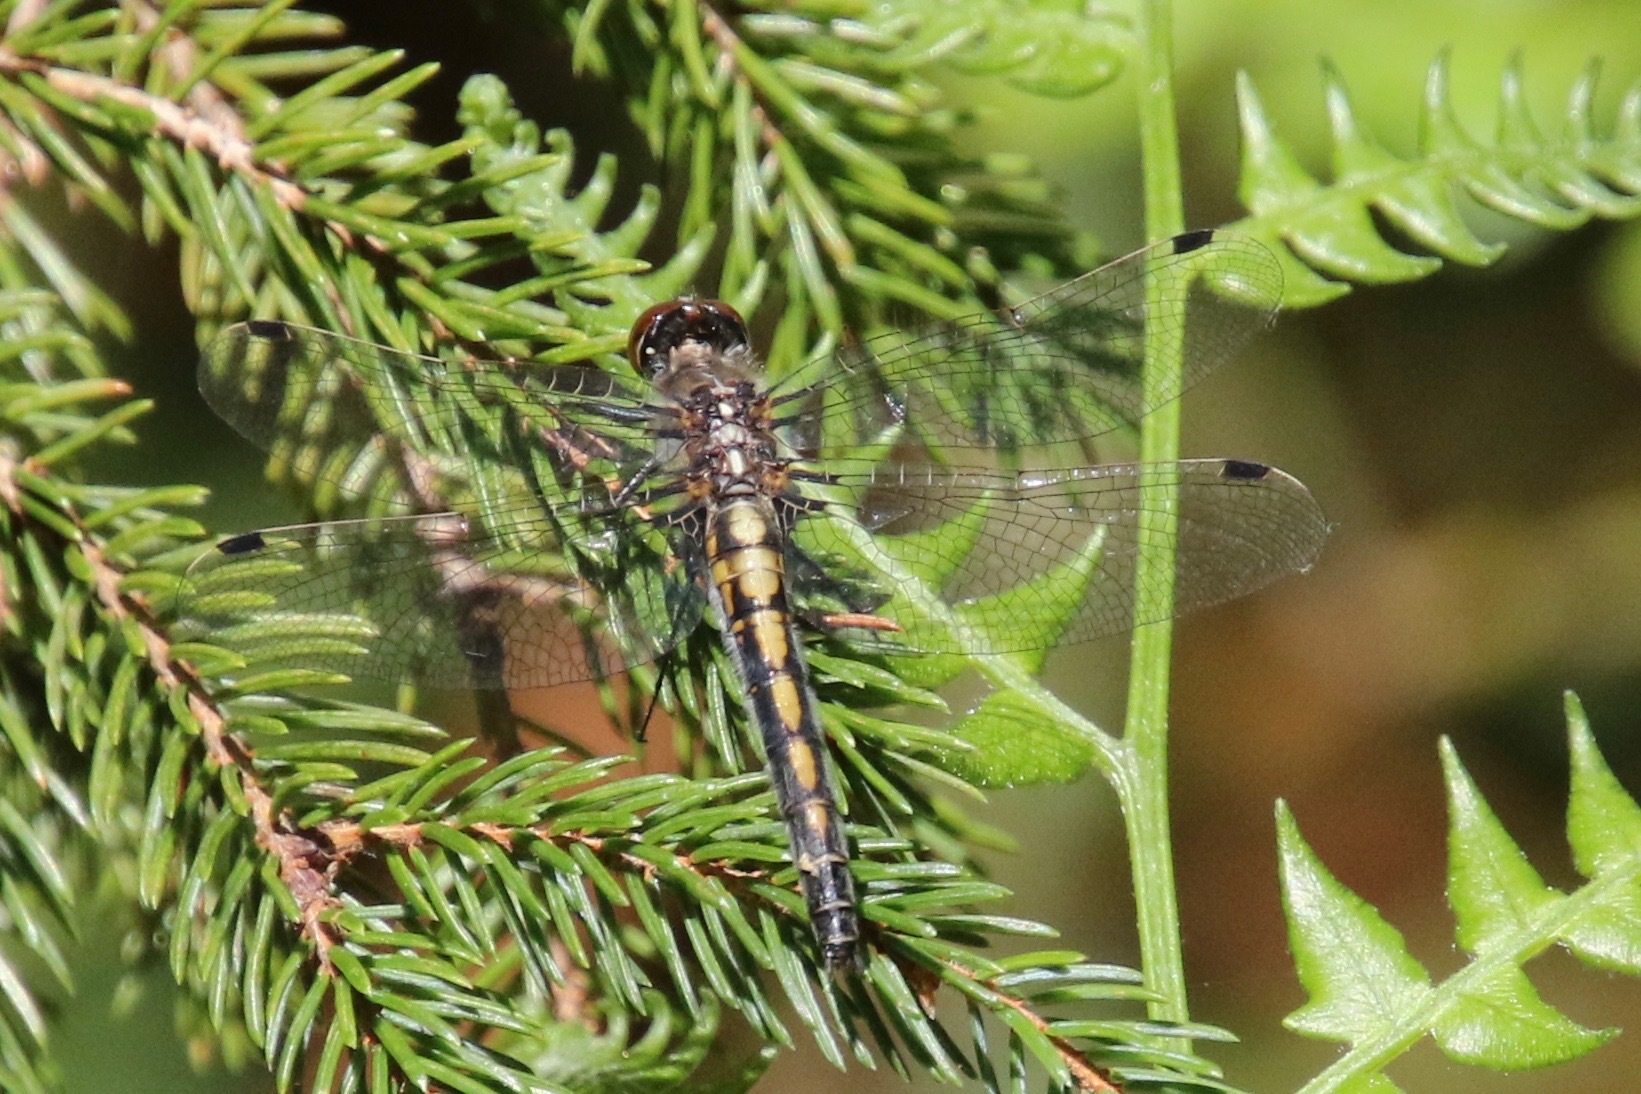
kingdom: Animalia
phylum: Arthropoda
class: Insecta
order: Odonata
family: Libellulidae
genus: Leucorrhinia
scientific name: Leucorrhinia hudsonica
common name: Hudsonian whiteface
